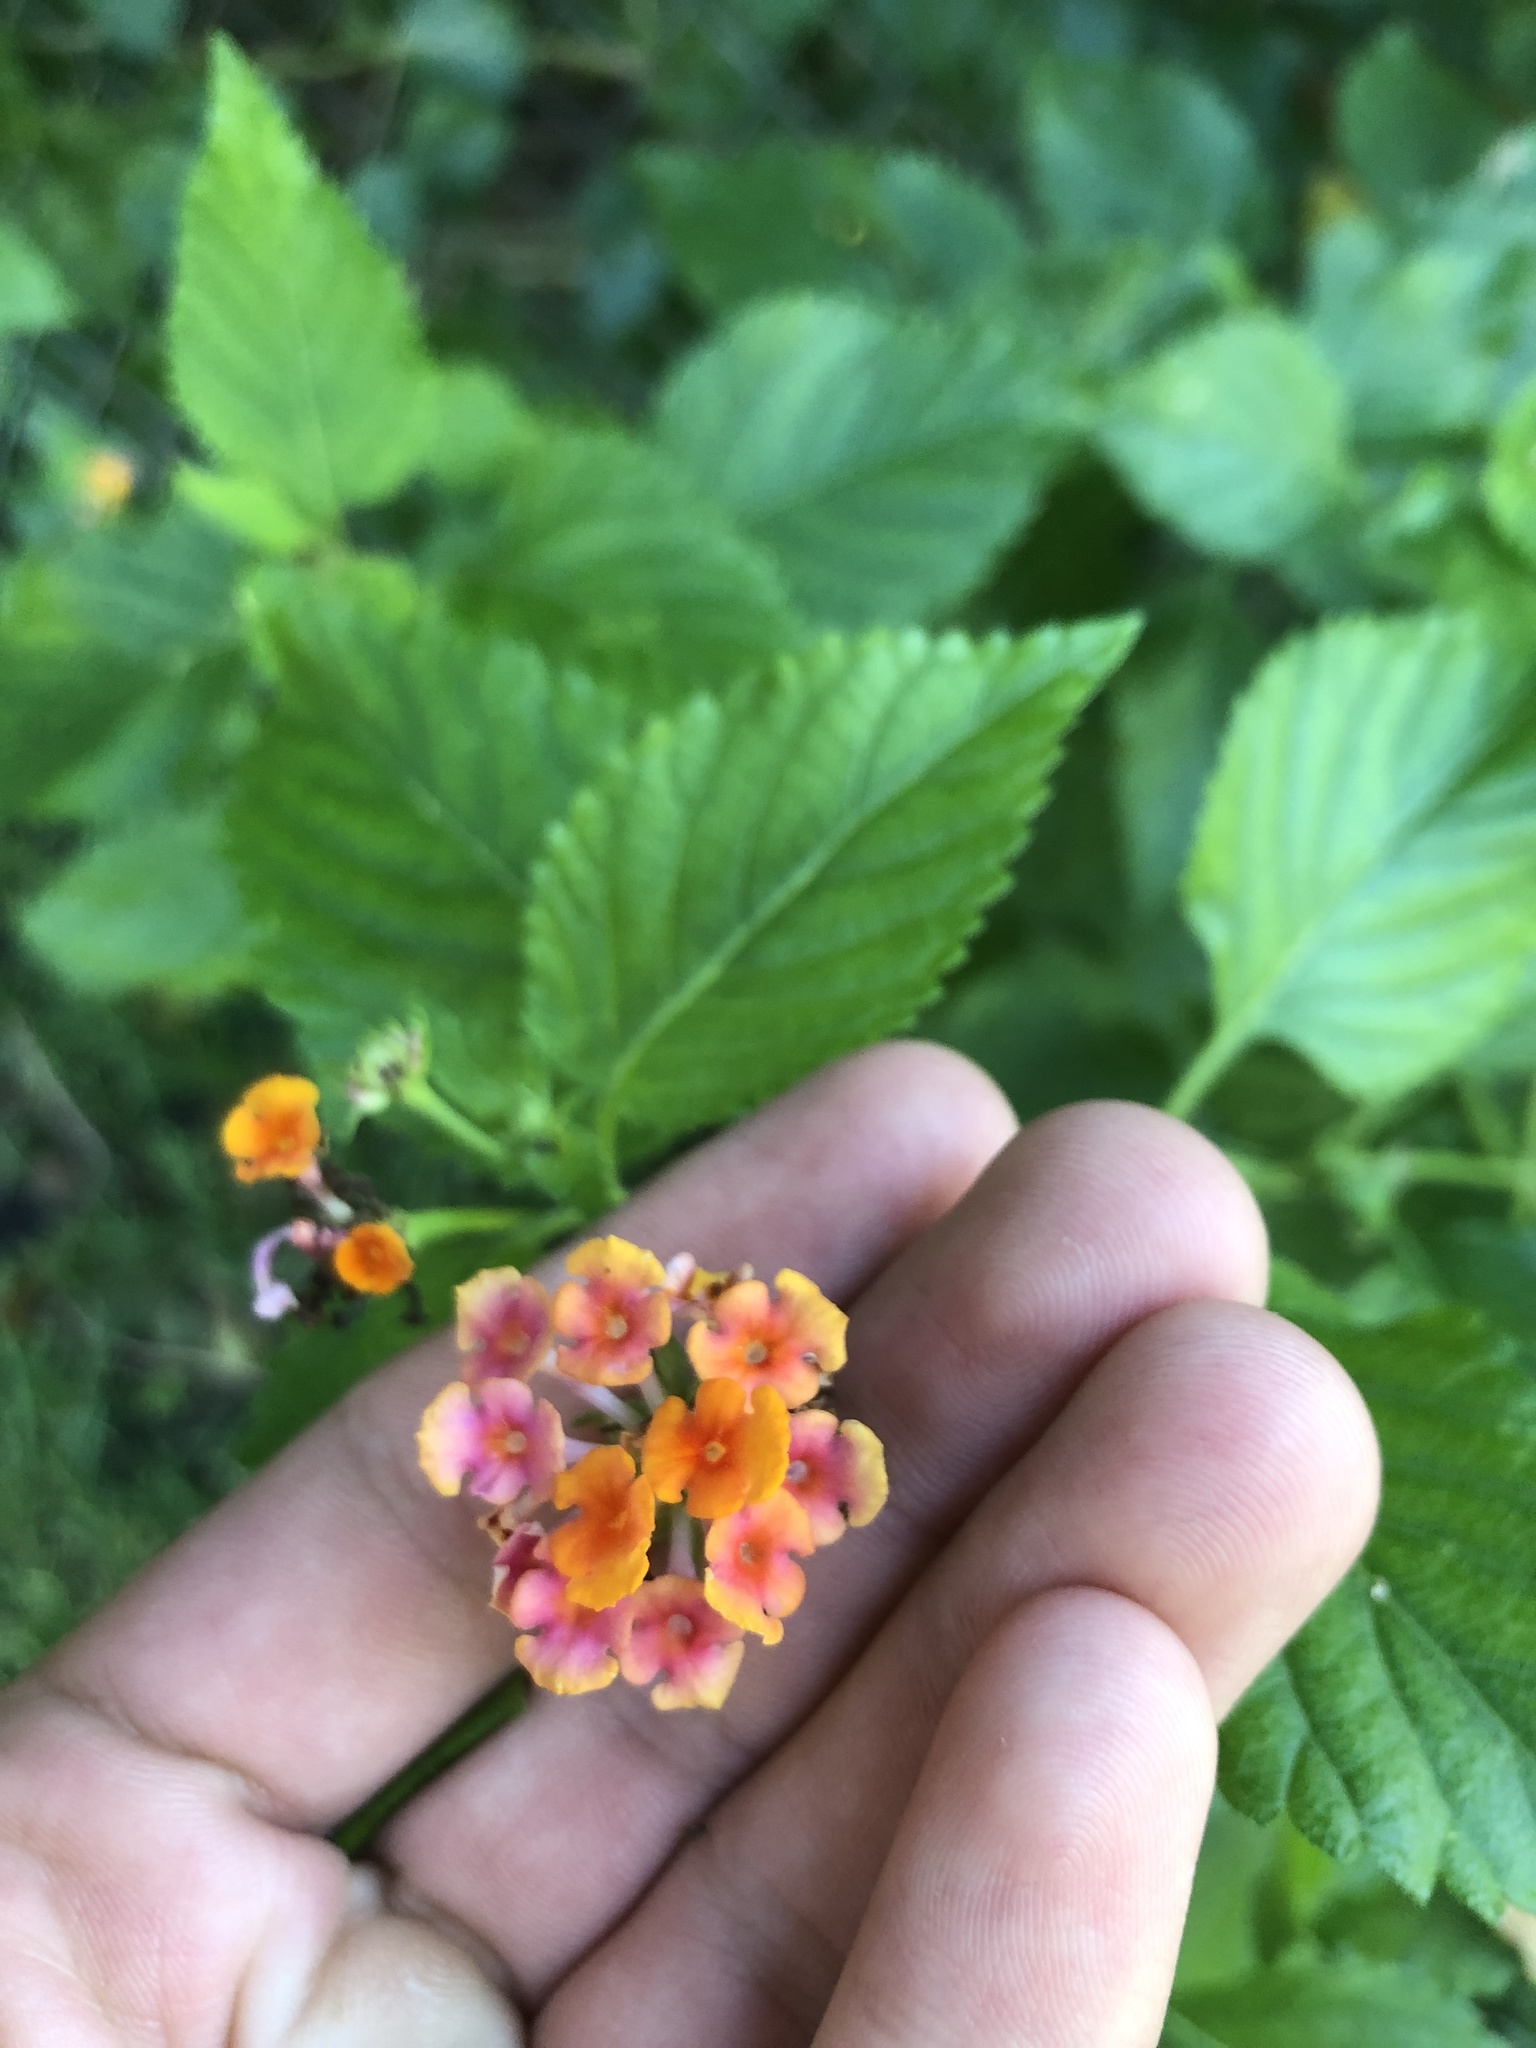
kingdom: Plantae
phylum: Tracheophyta
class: Magnoliopsida
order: Lamiales
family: Verbenaceae
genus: Lantana
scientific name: Lantana camara
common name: Lantana
